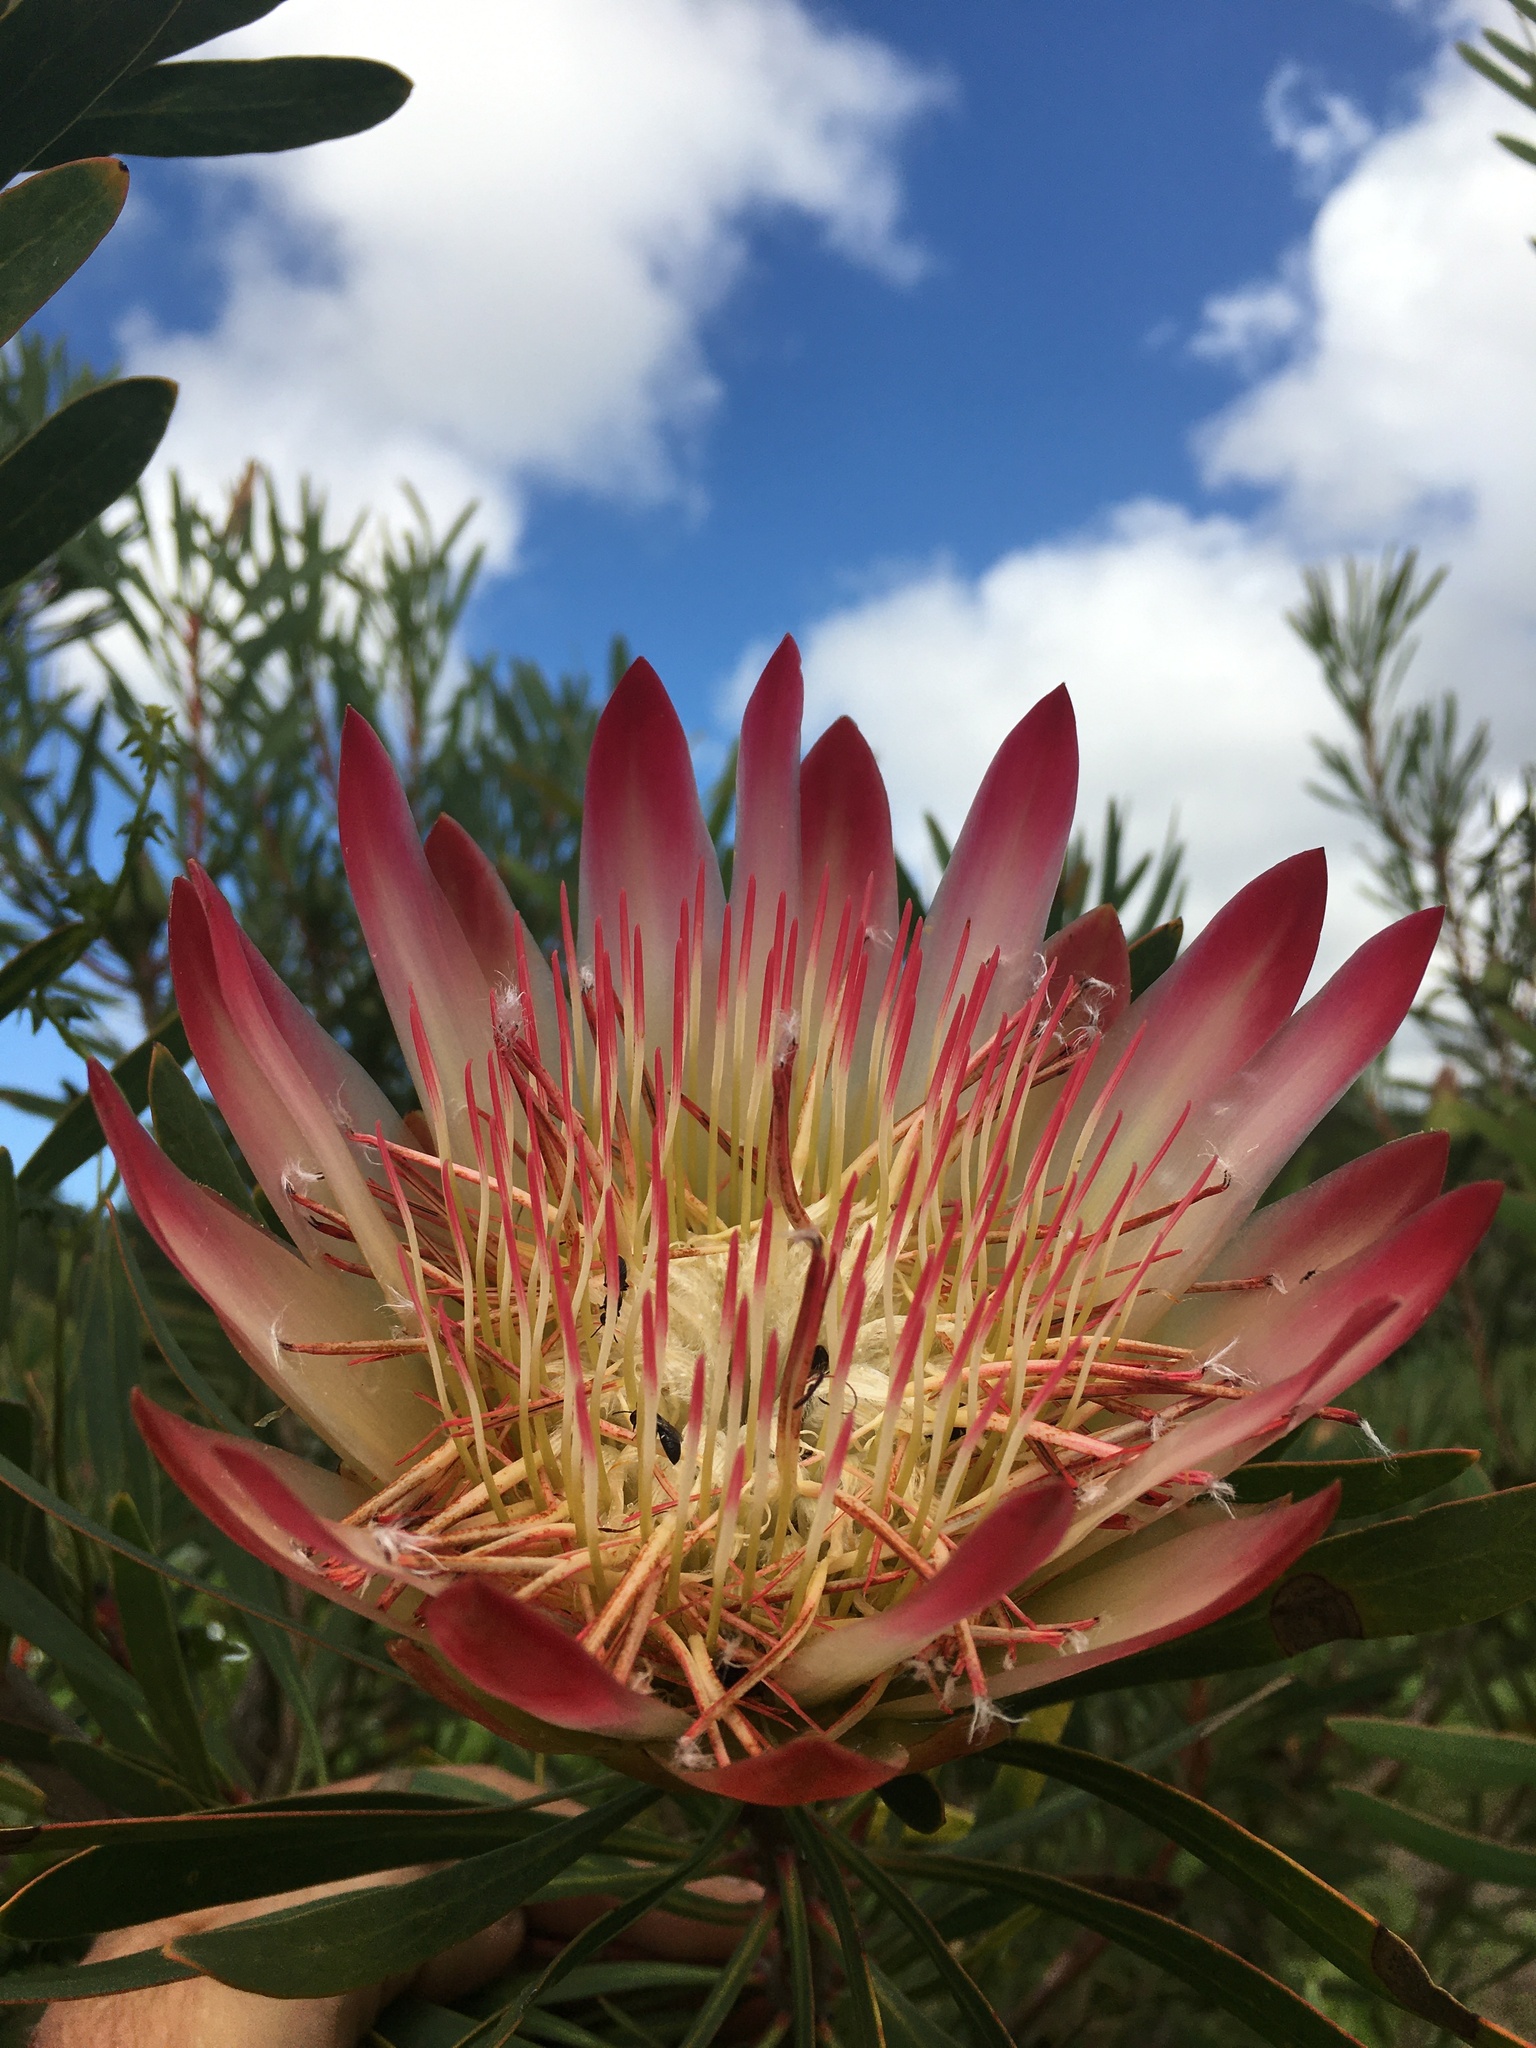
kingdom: Plantae
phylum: Tracheophyta
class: Magnoliopsida
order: Proteales
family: Proteaceae
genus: Protea
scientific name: Protea repens
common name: Sugarbush
